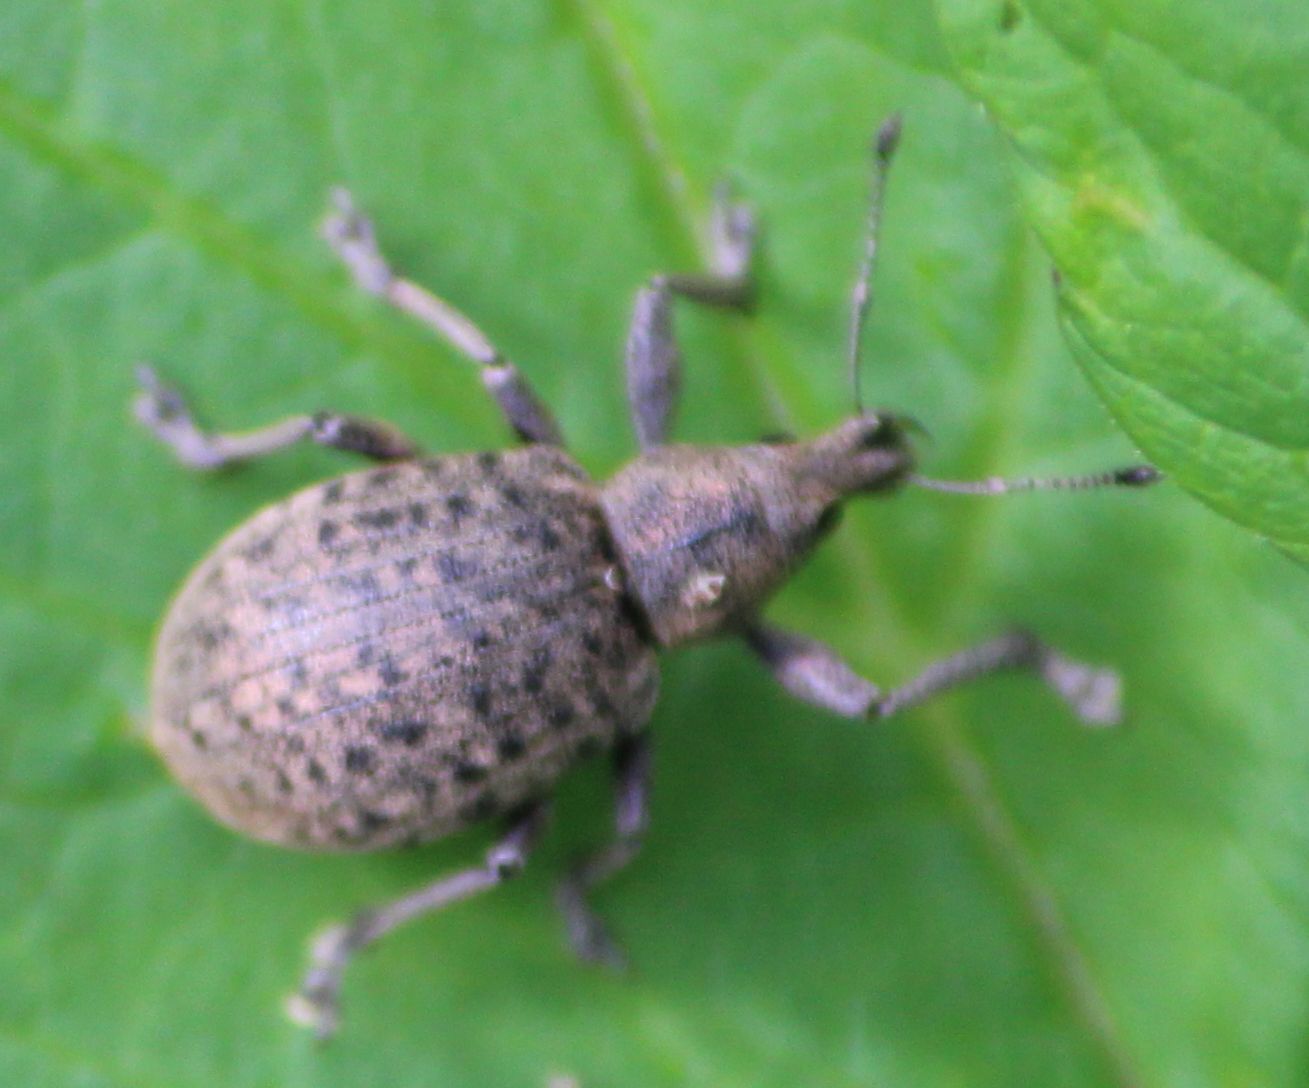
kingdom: Animalia
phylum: Arthropoda
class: Insecta
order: Coleoptera
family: Curculionidae
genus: Liophloeus
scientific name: Liophloeus tessulatus
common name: Weevil
